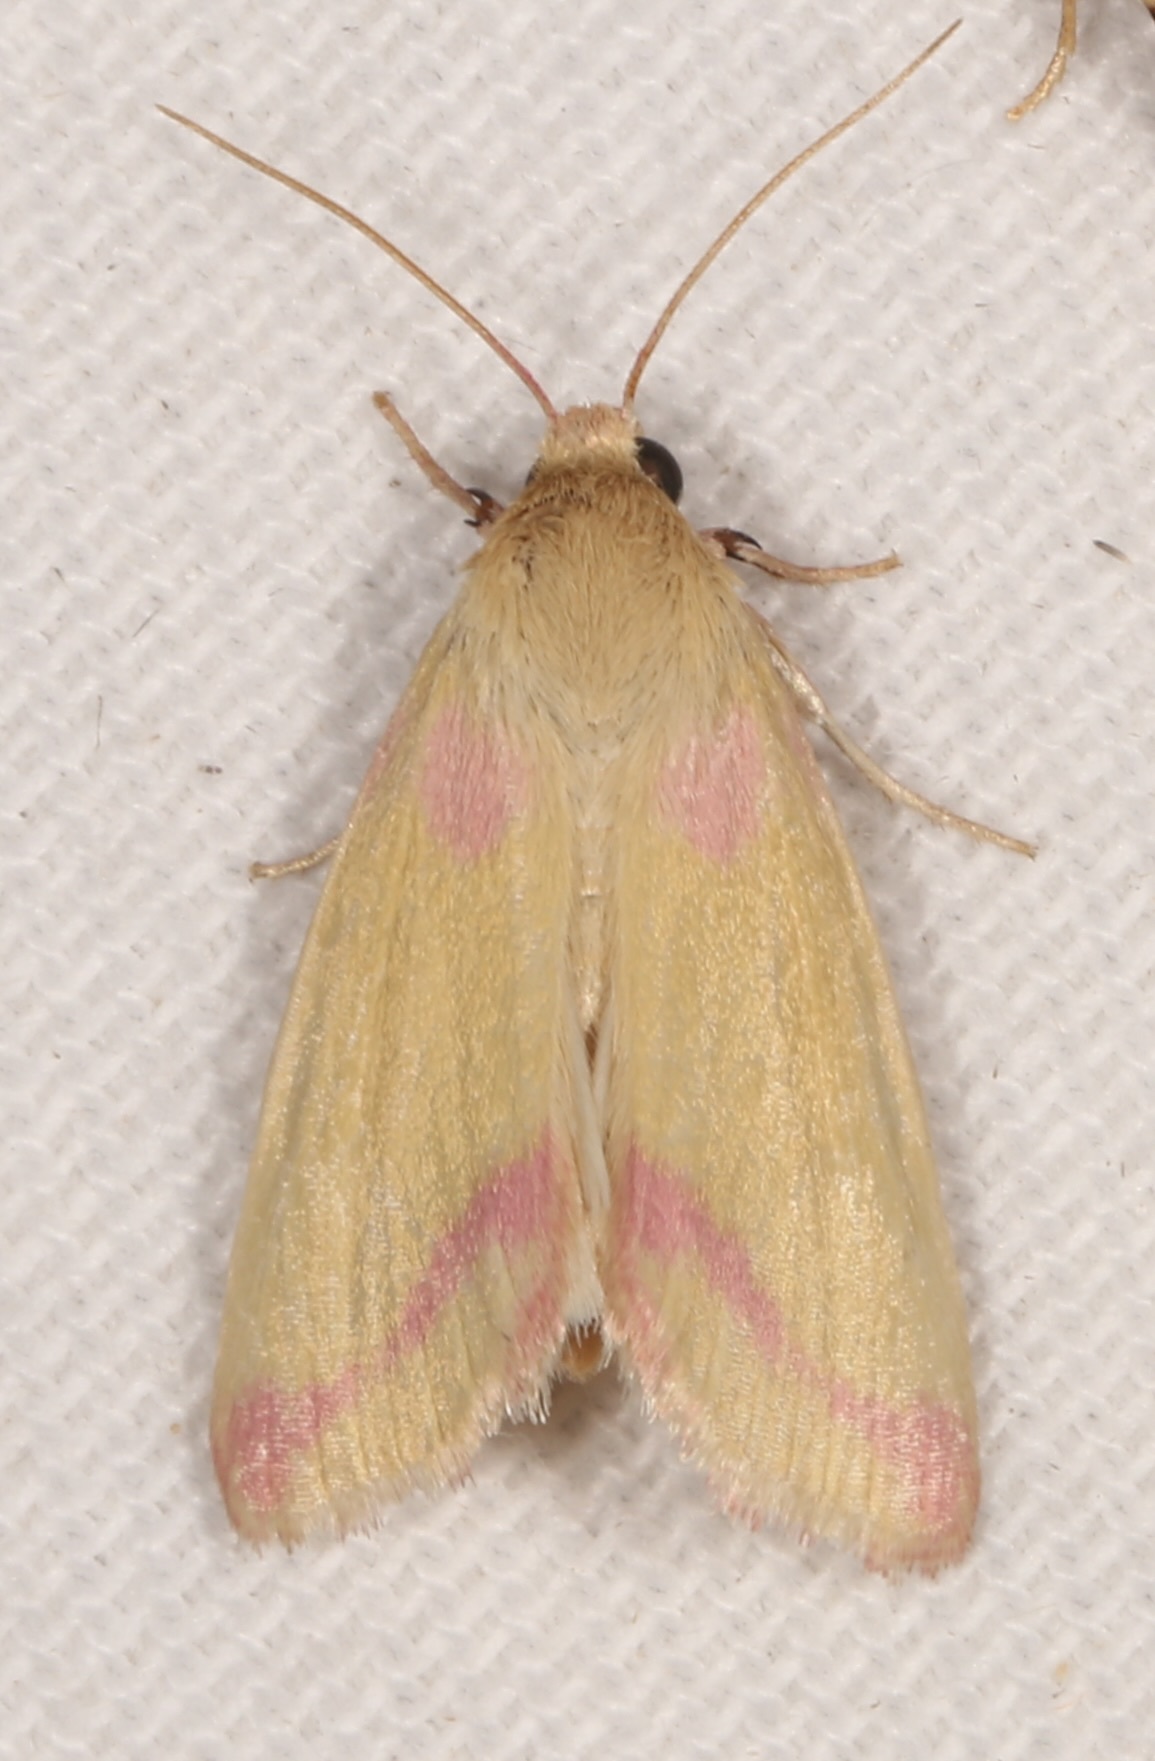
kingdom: Animalia
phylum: Arthropoda
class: Insecta
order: Lepidoptera
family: Noctuidae
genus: Heliocheilus
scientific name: Heliocheilus toralis
